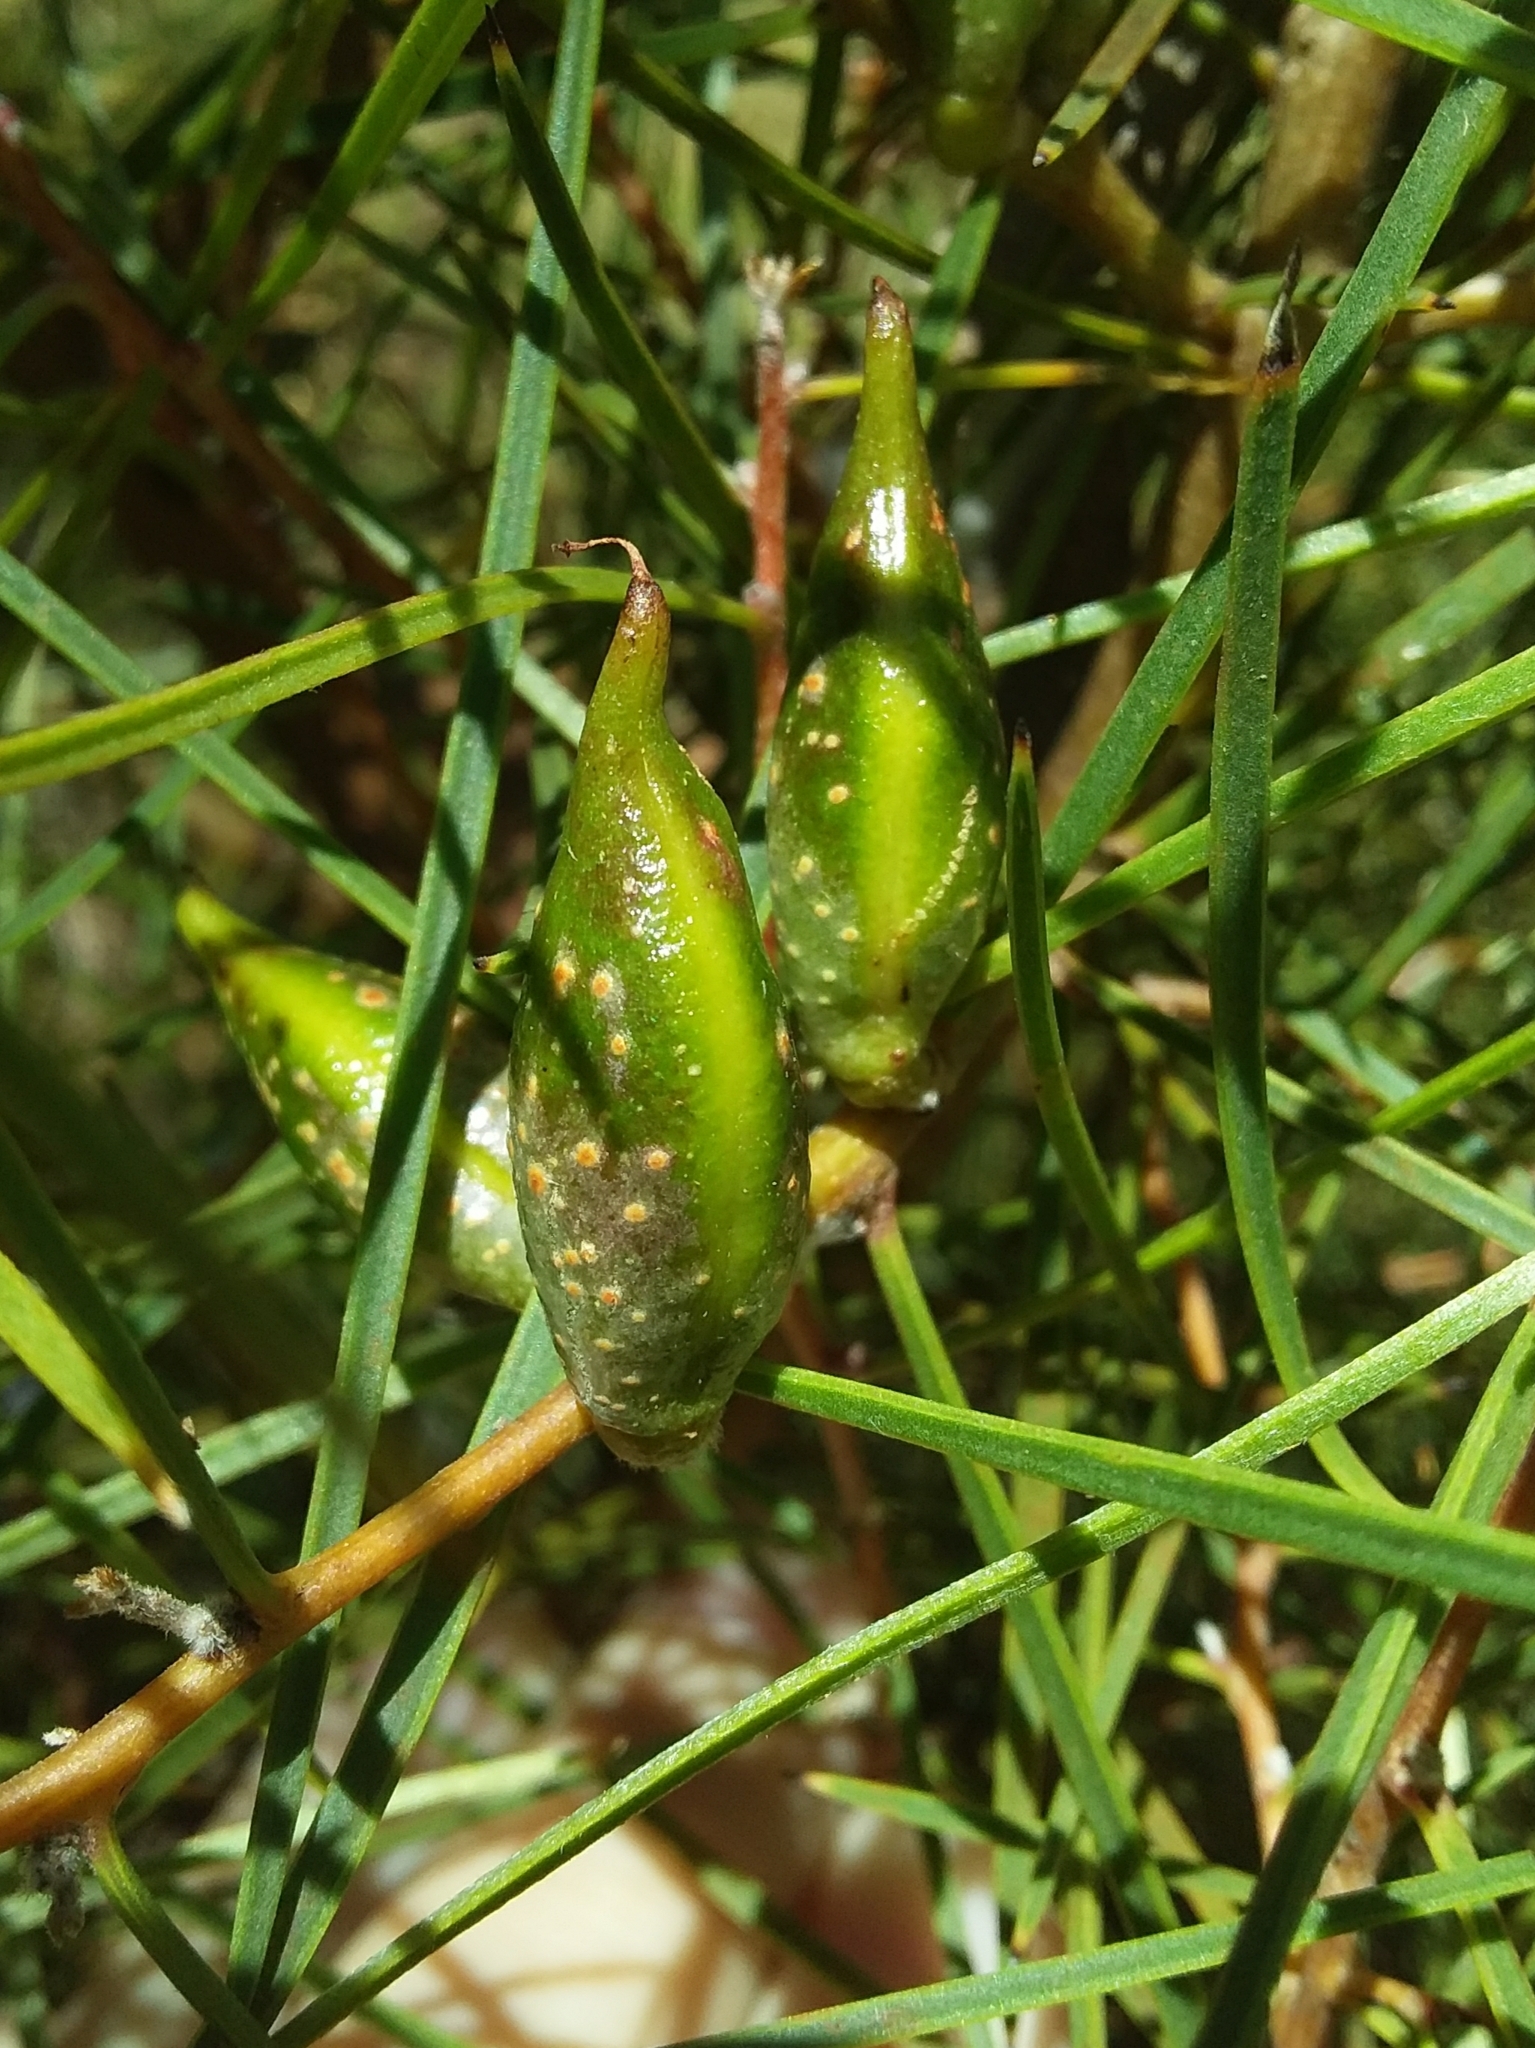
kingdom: Plantae
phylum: Tracheophyta
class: Magnoliopsida
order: Proteales
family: Proteaceae
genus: Hakea
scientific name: Hakea carinata
